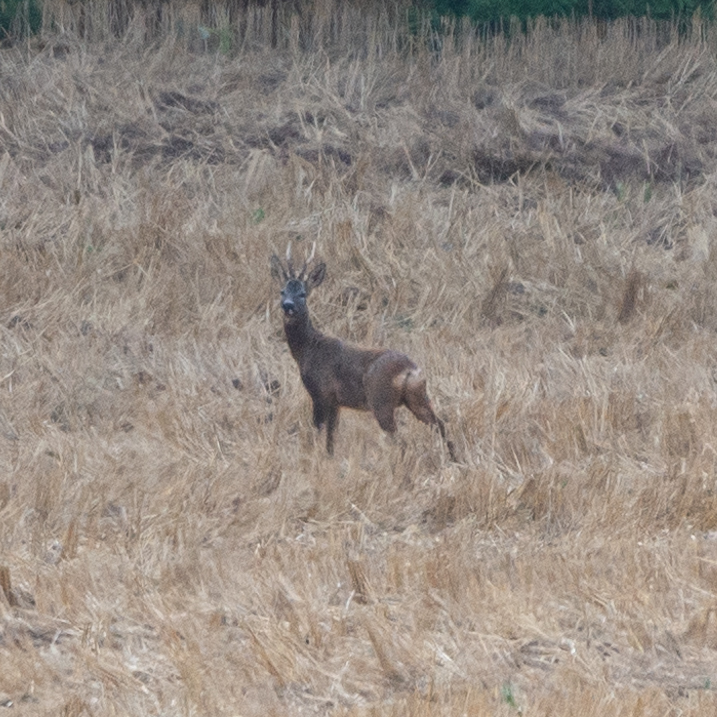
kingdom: Animalia
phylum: Chordata
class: Mammalia
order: Artiodactyla
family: Cervidae
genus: Capreolus
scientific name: Capreolus capreolus
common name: Western roe deer
